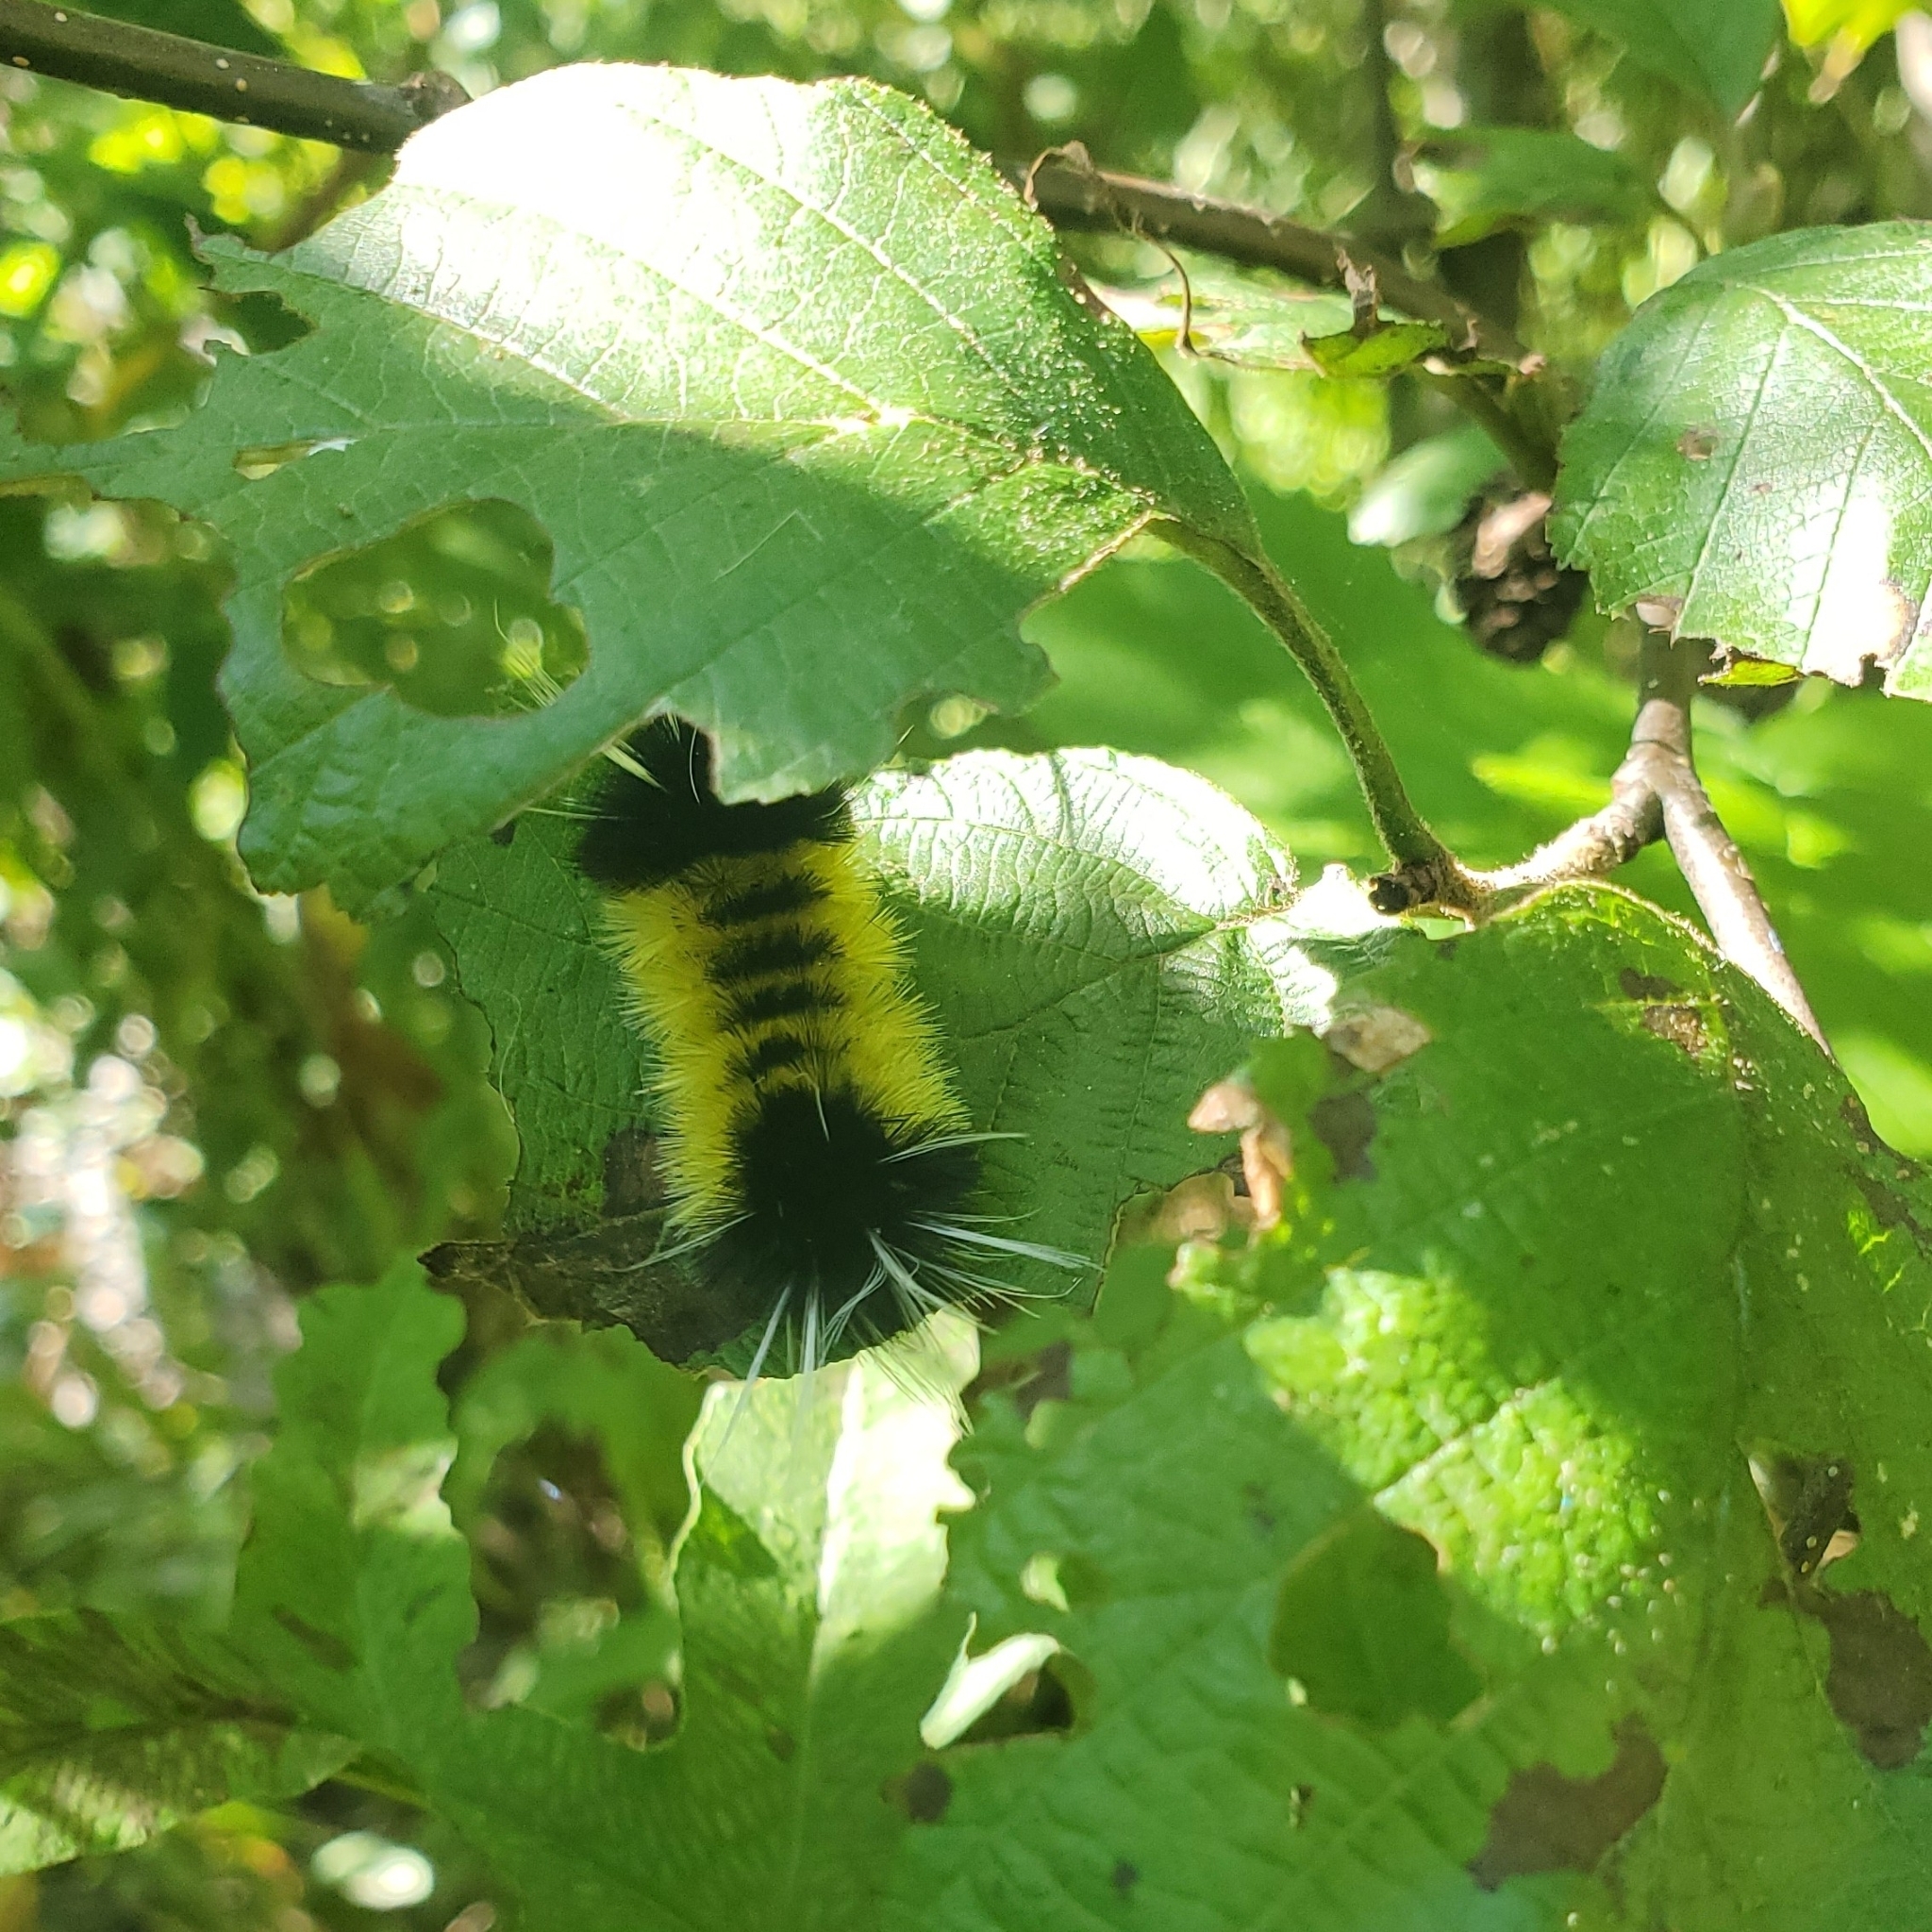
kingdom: Animalia
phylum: Arthropoda
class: Insecta
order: Lepidoptera
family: Erebidae
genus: Lophocampa
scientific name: Lophocampa maculata
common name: Spotted tussock moth
